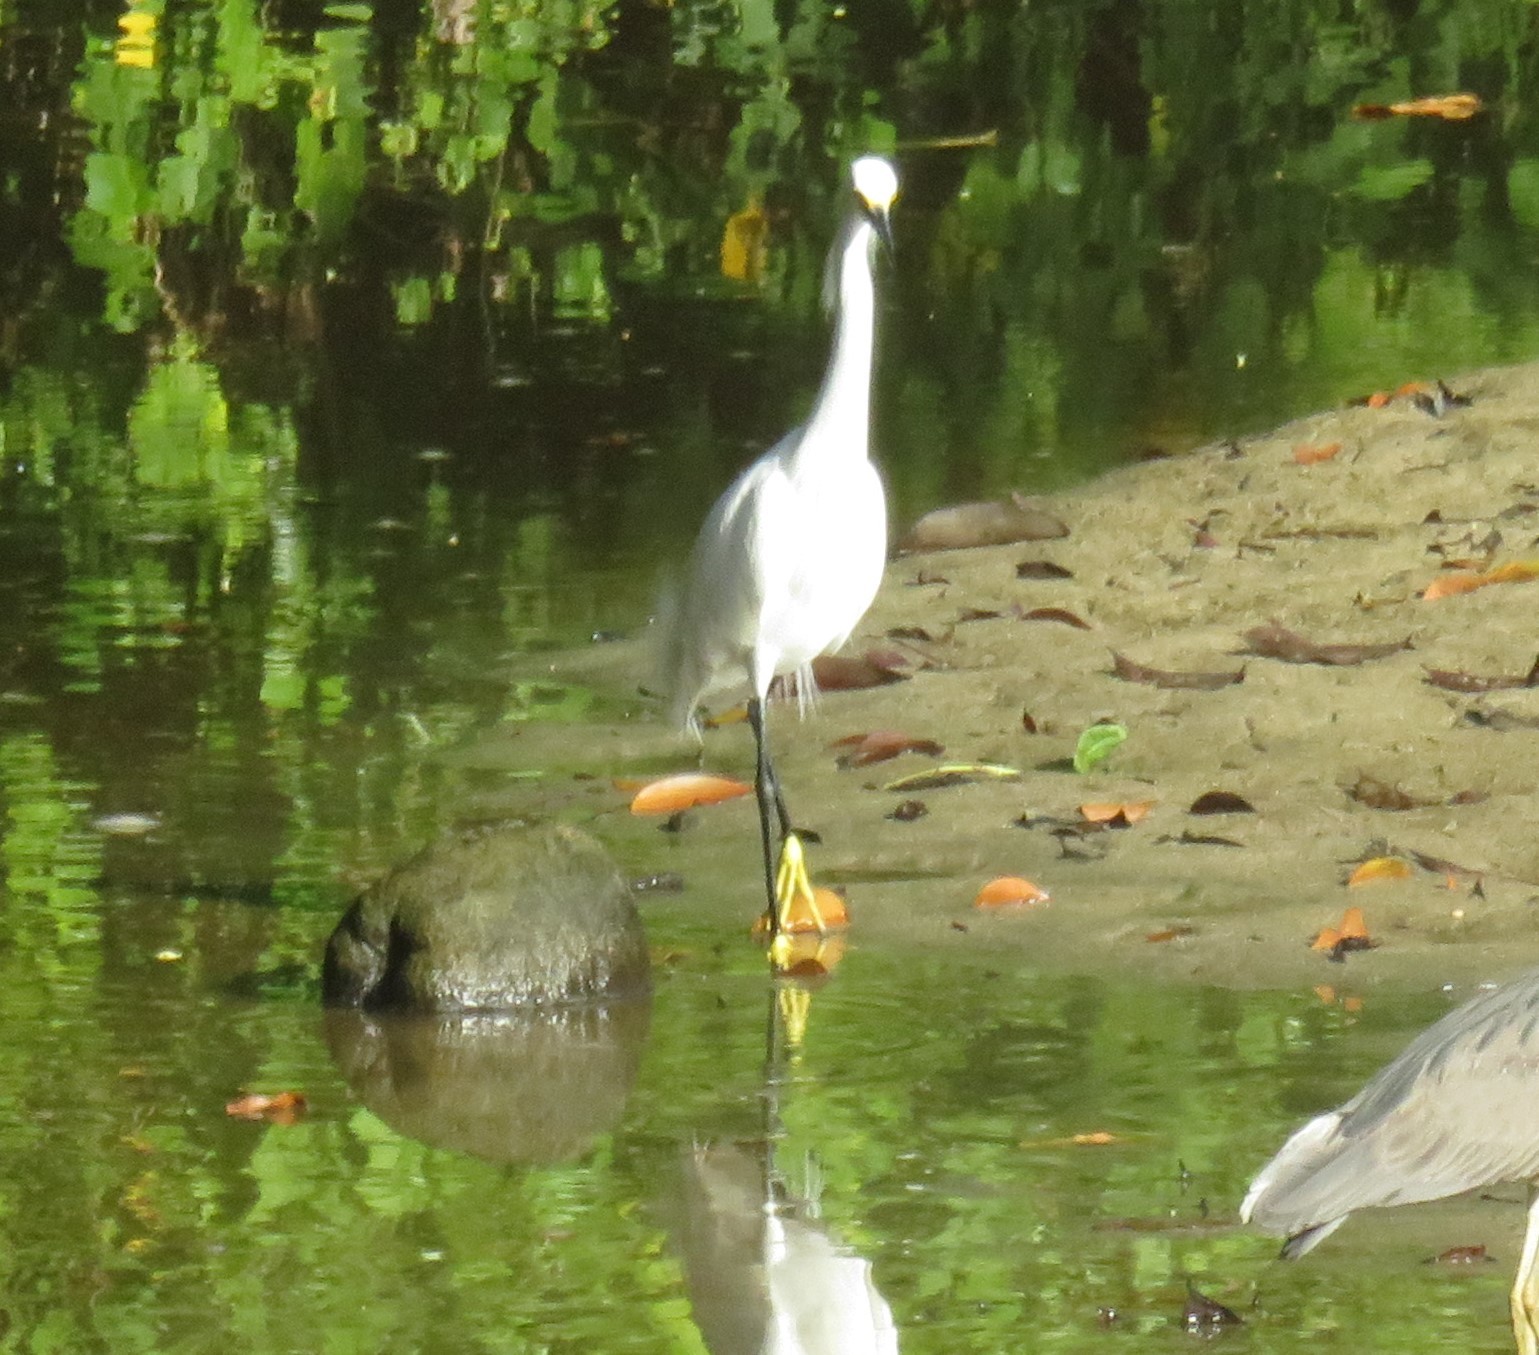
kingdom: Animalia
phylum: Chordata
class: Aves
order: Pelecaniformes
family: Ardeidae
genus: Egretta
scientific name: Egretta thula
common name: Snowy egret
